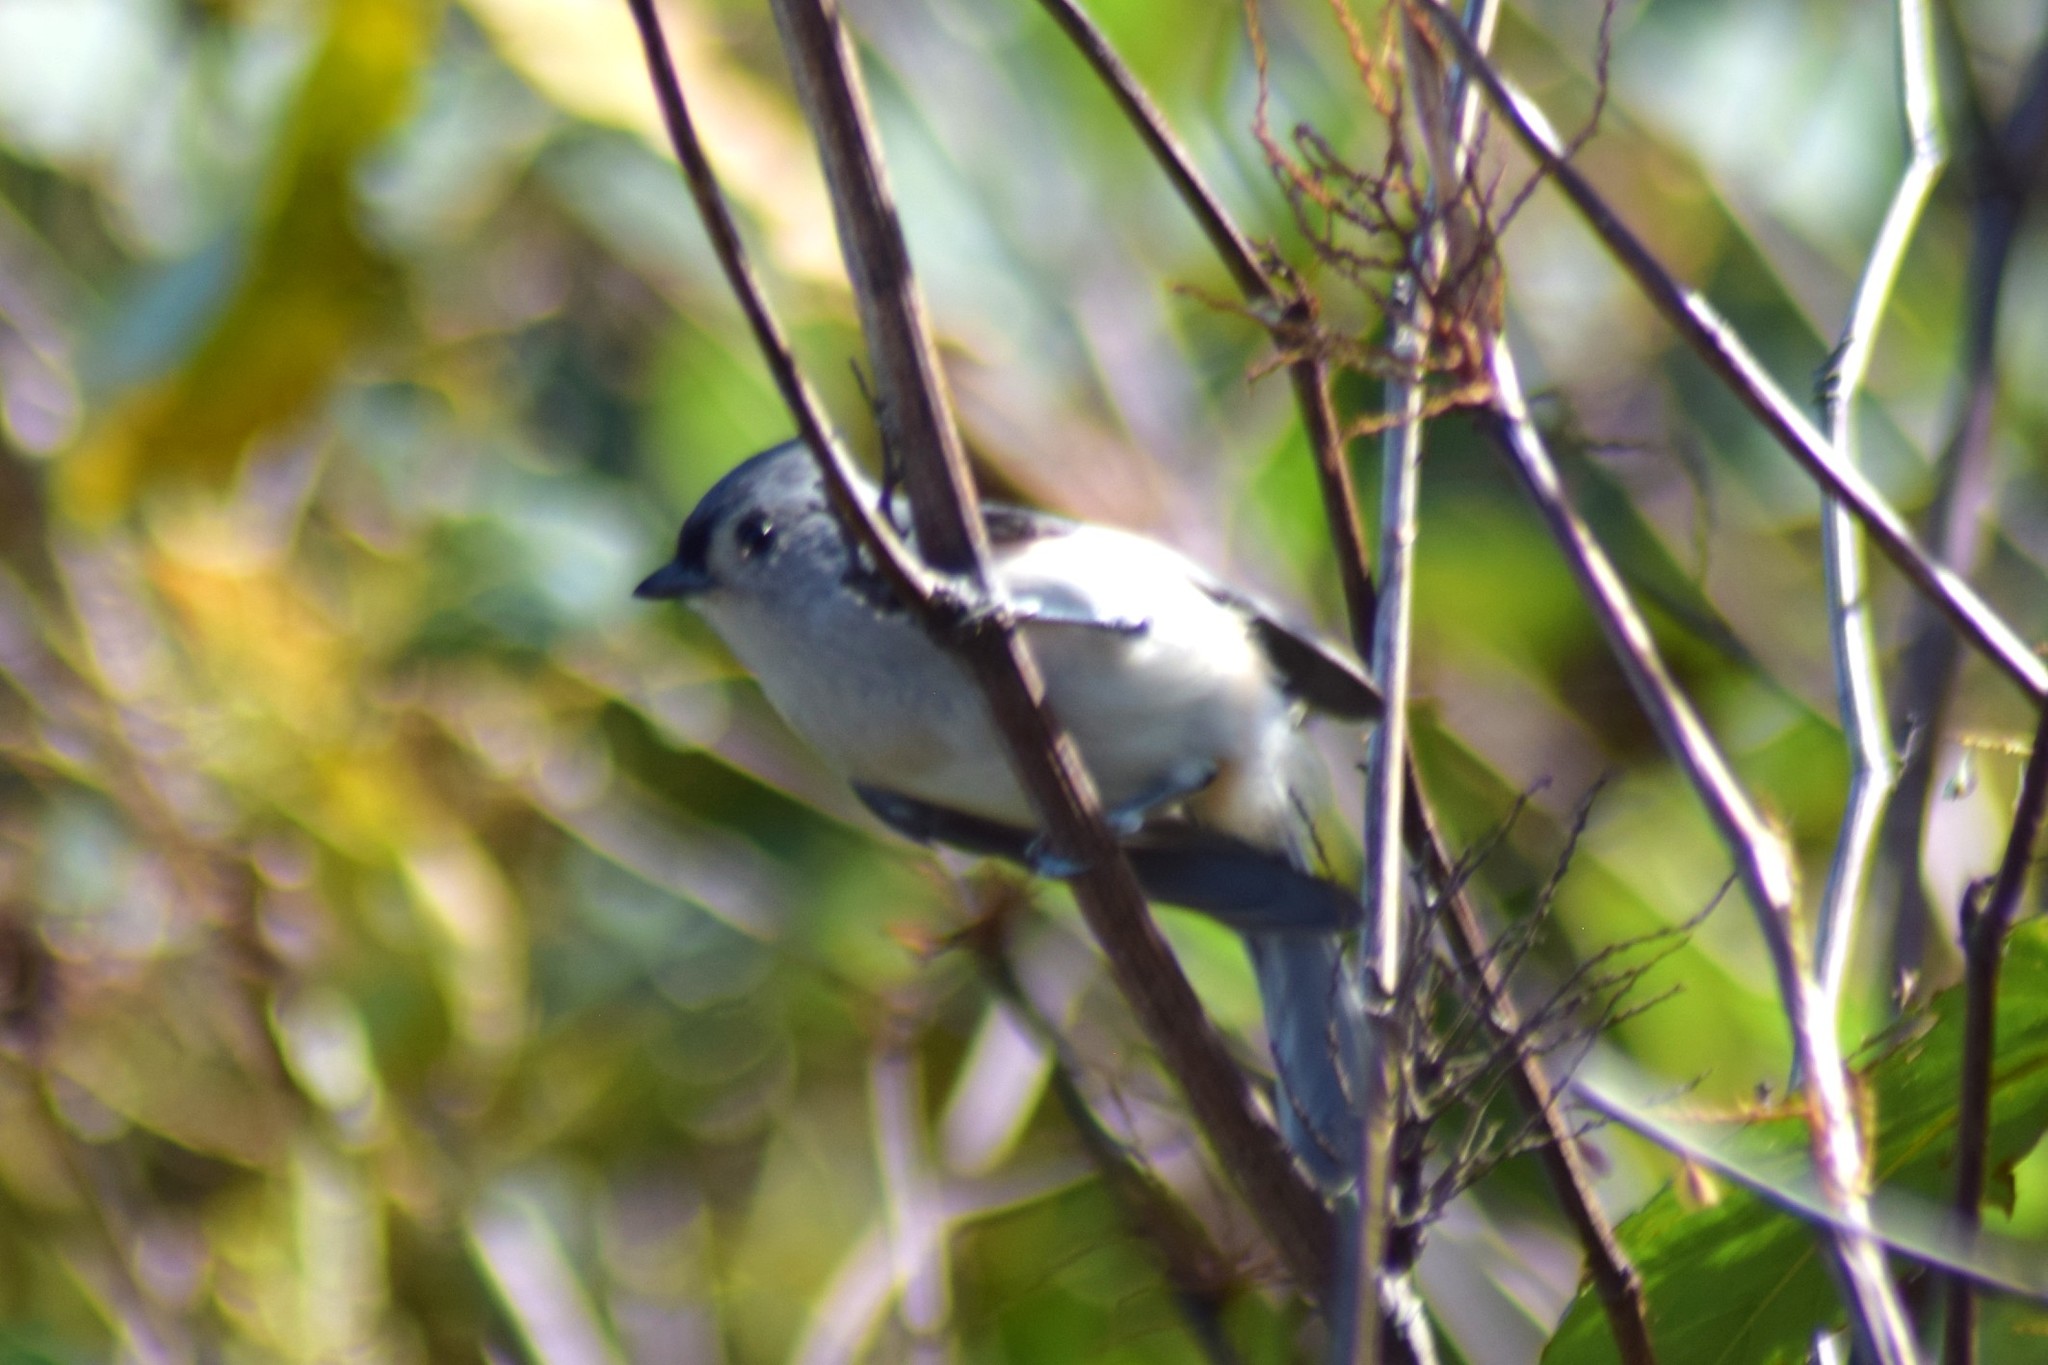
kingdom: Animalia
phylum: Chordata
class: Aves
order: Passeriformes
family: Paridae
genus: Baeolophus
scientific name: Baeolophus bicolor
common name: Tufted titmouse
